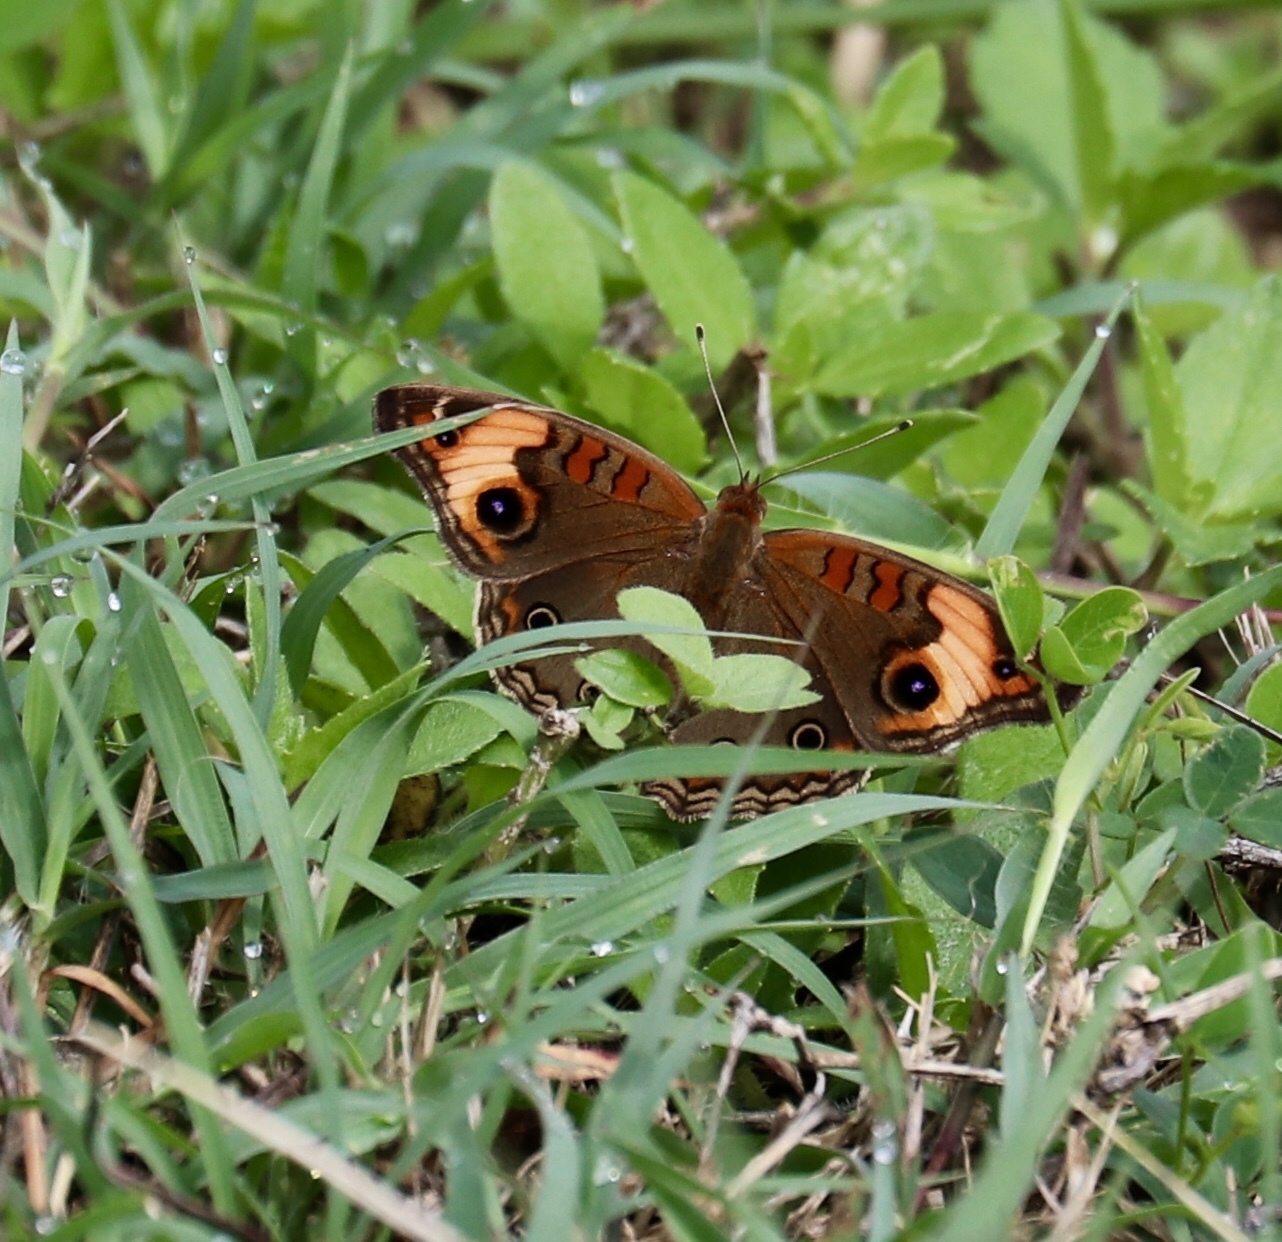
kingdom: Animalia
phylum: Arthropoda
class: Insecta
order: Lepidoptera
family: Nymphalidae
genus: Junonia
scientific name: Junonia lavinia
